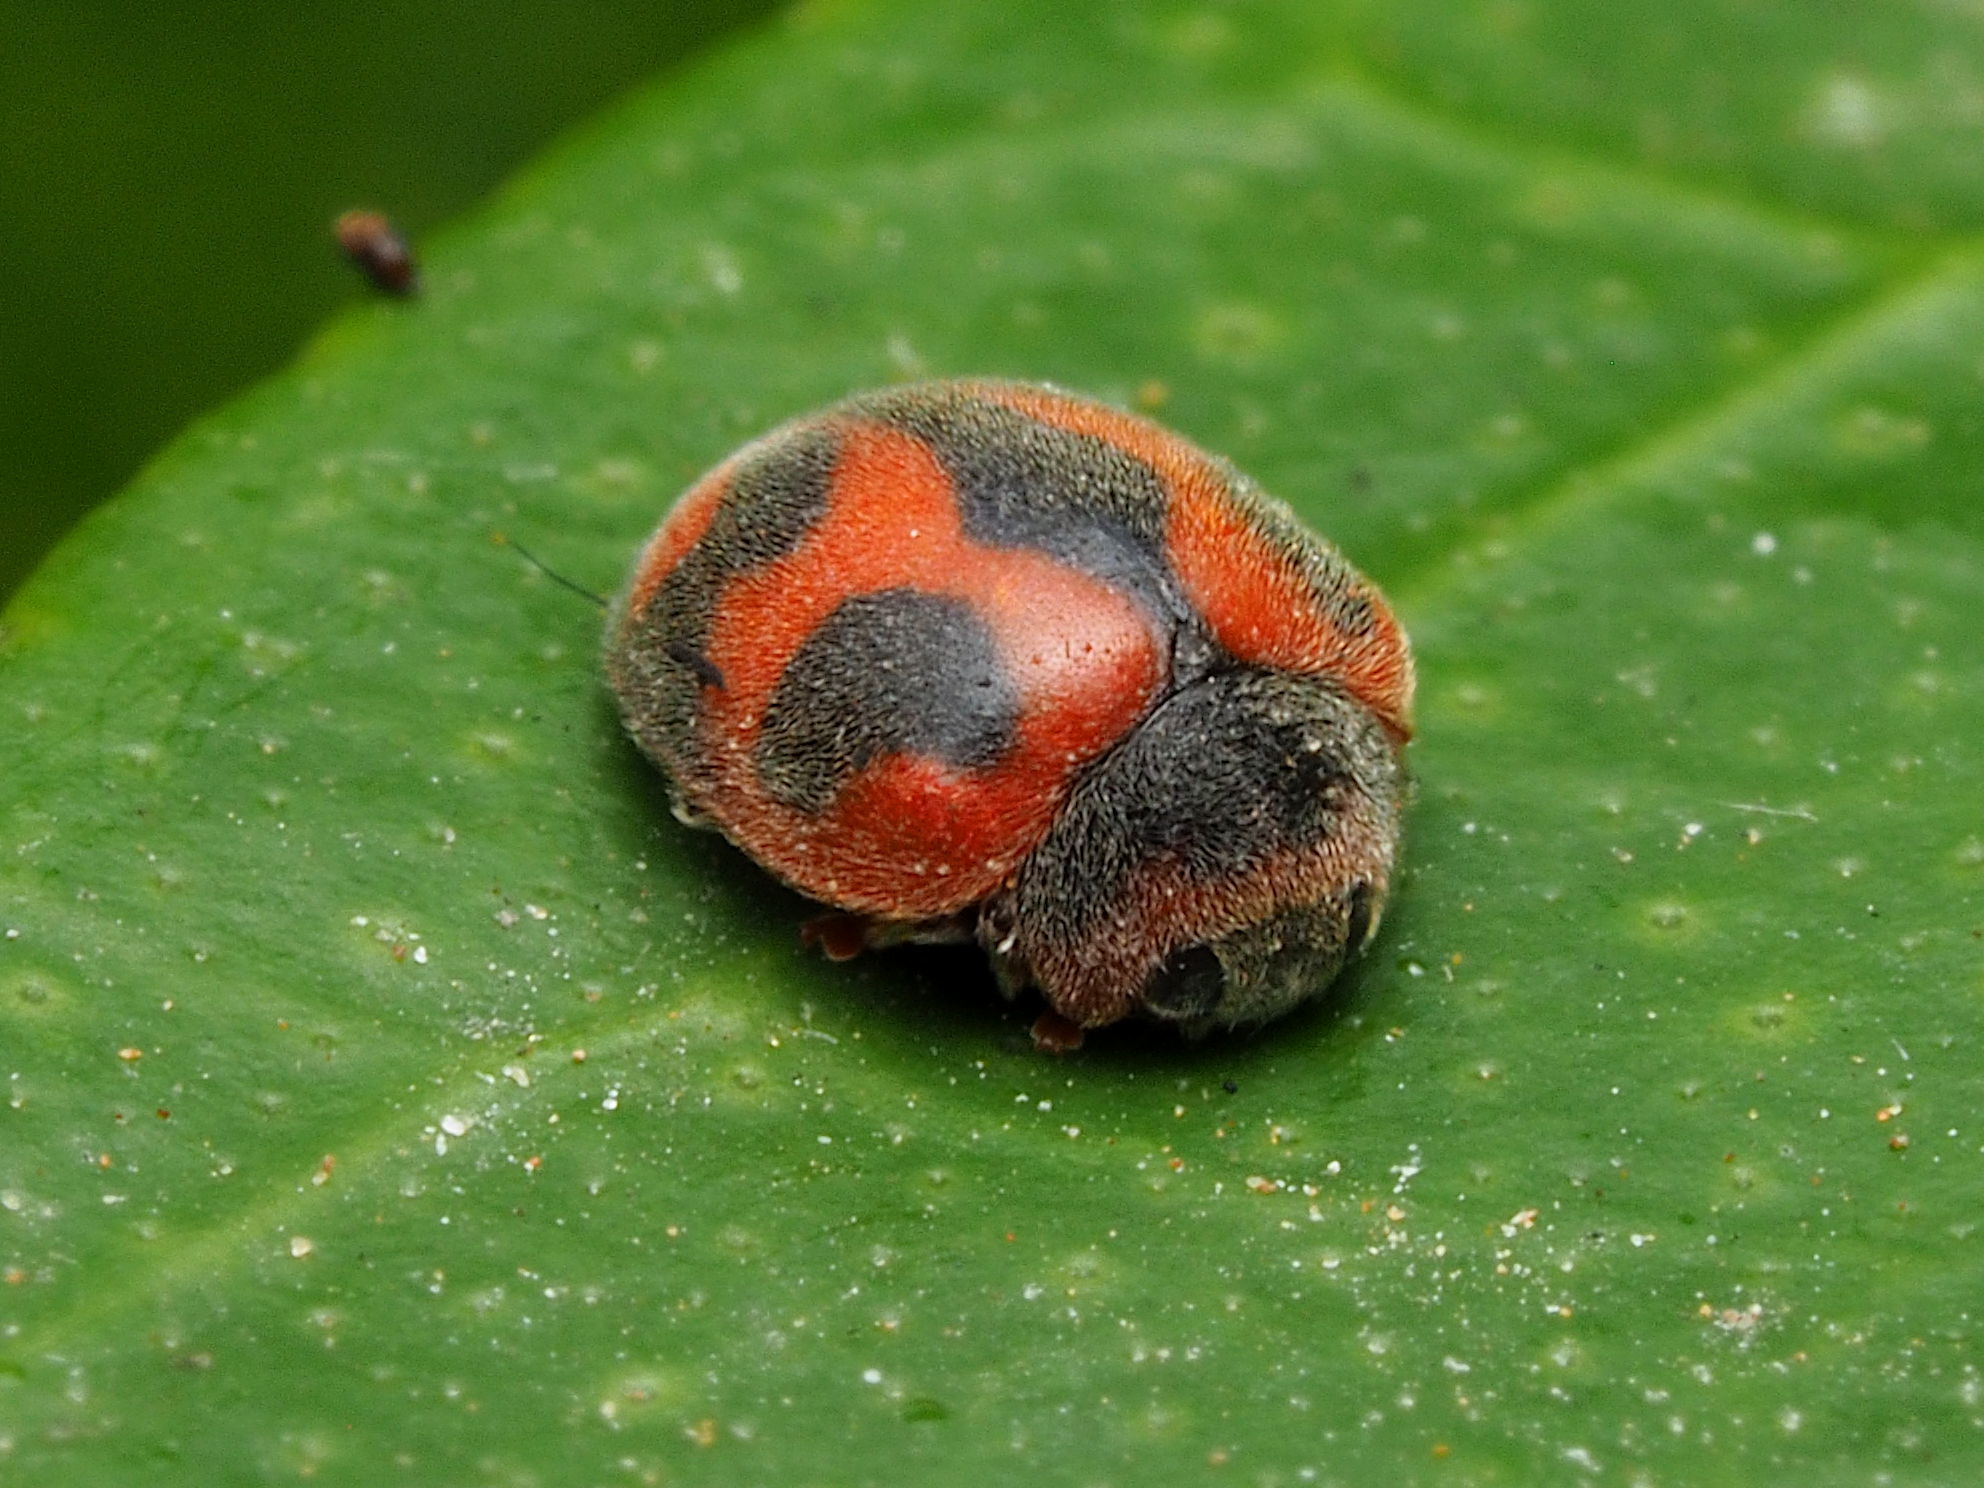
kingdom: Animalia
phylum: Arthropoda
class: Insecta
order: Coleoptera
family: Coccinellidae
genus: Novius
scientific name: Novius cardinalis
